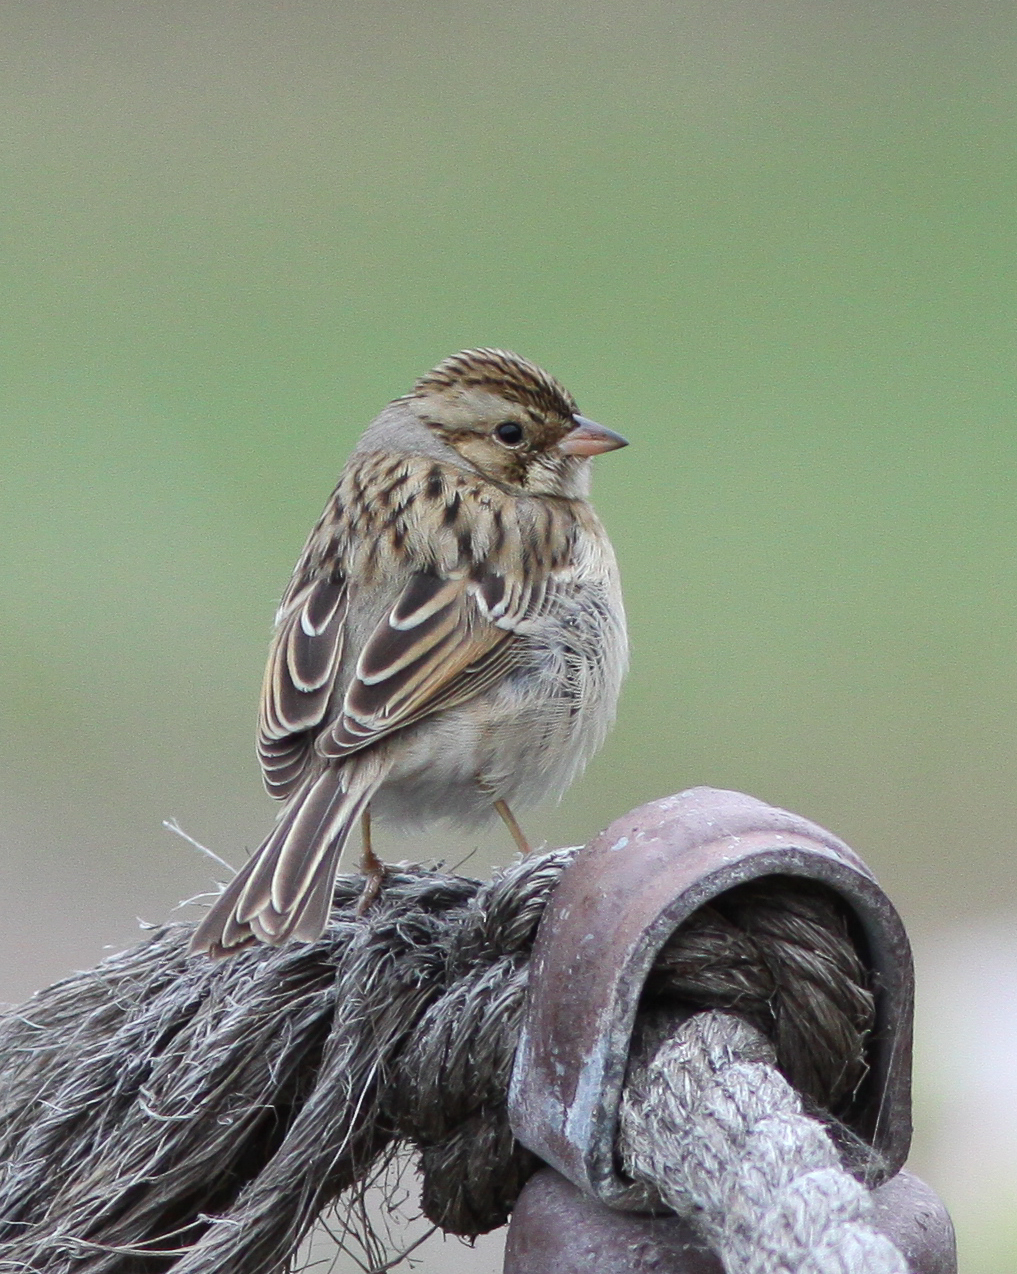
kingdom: Animalia
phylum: Chordata
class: Aves
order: Passeriformes
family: Passerellidae
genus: Spizella
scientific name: Spizella pallida
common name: Clay-colored sparrow
